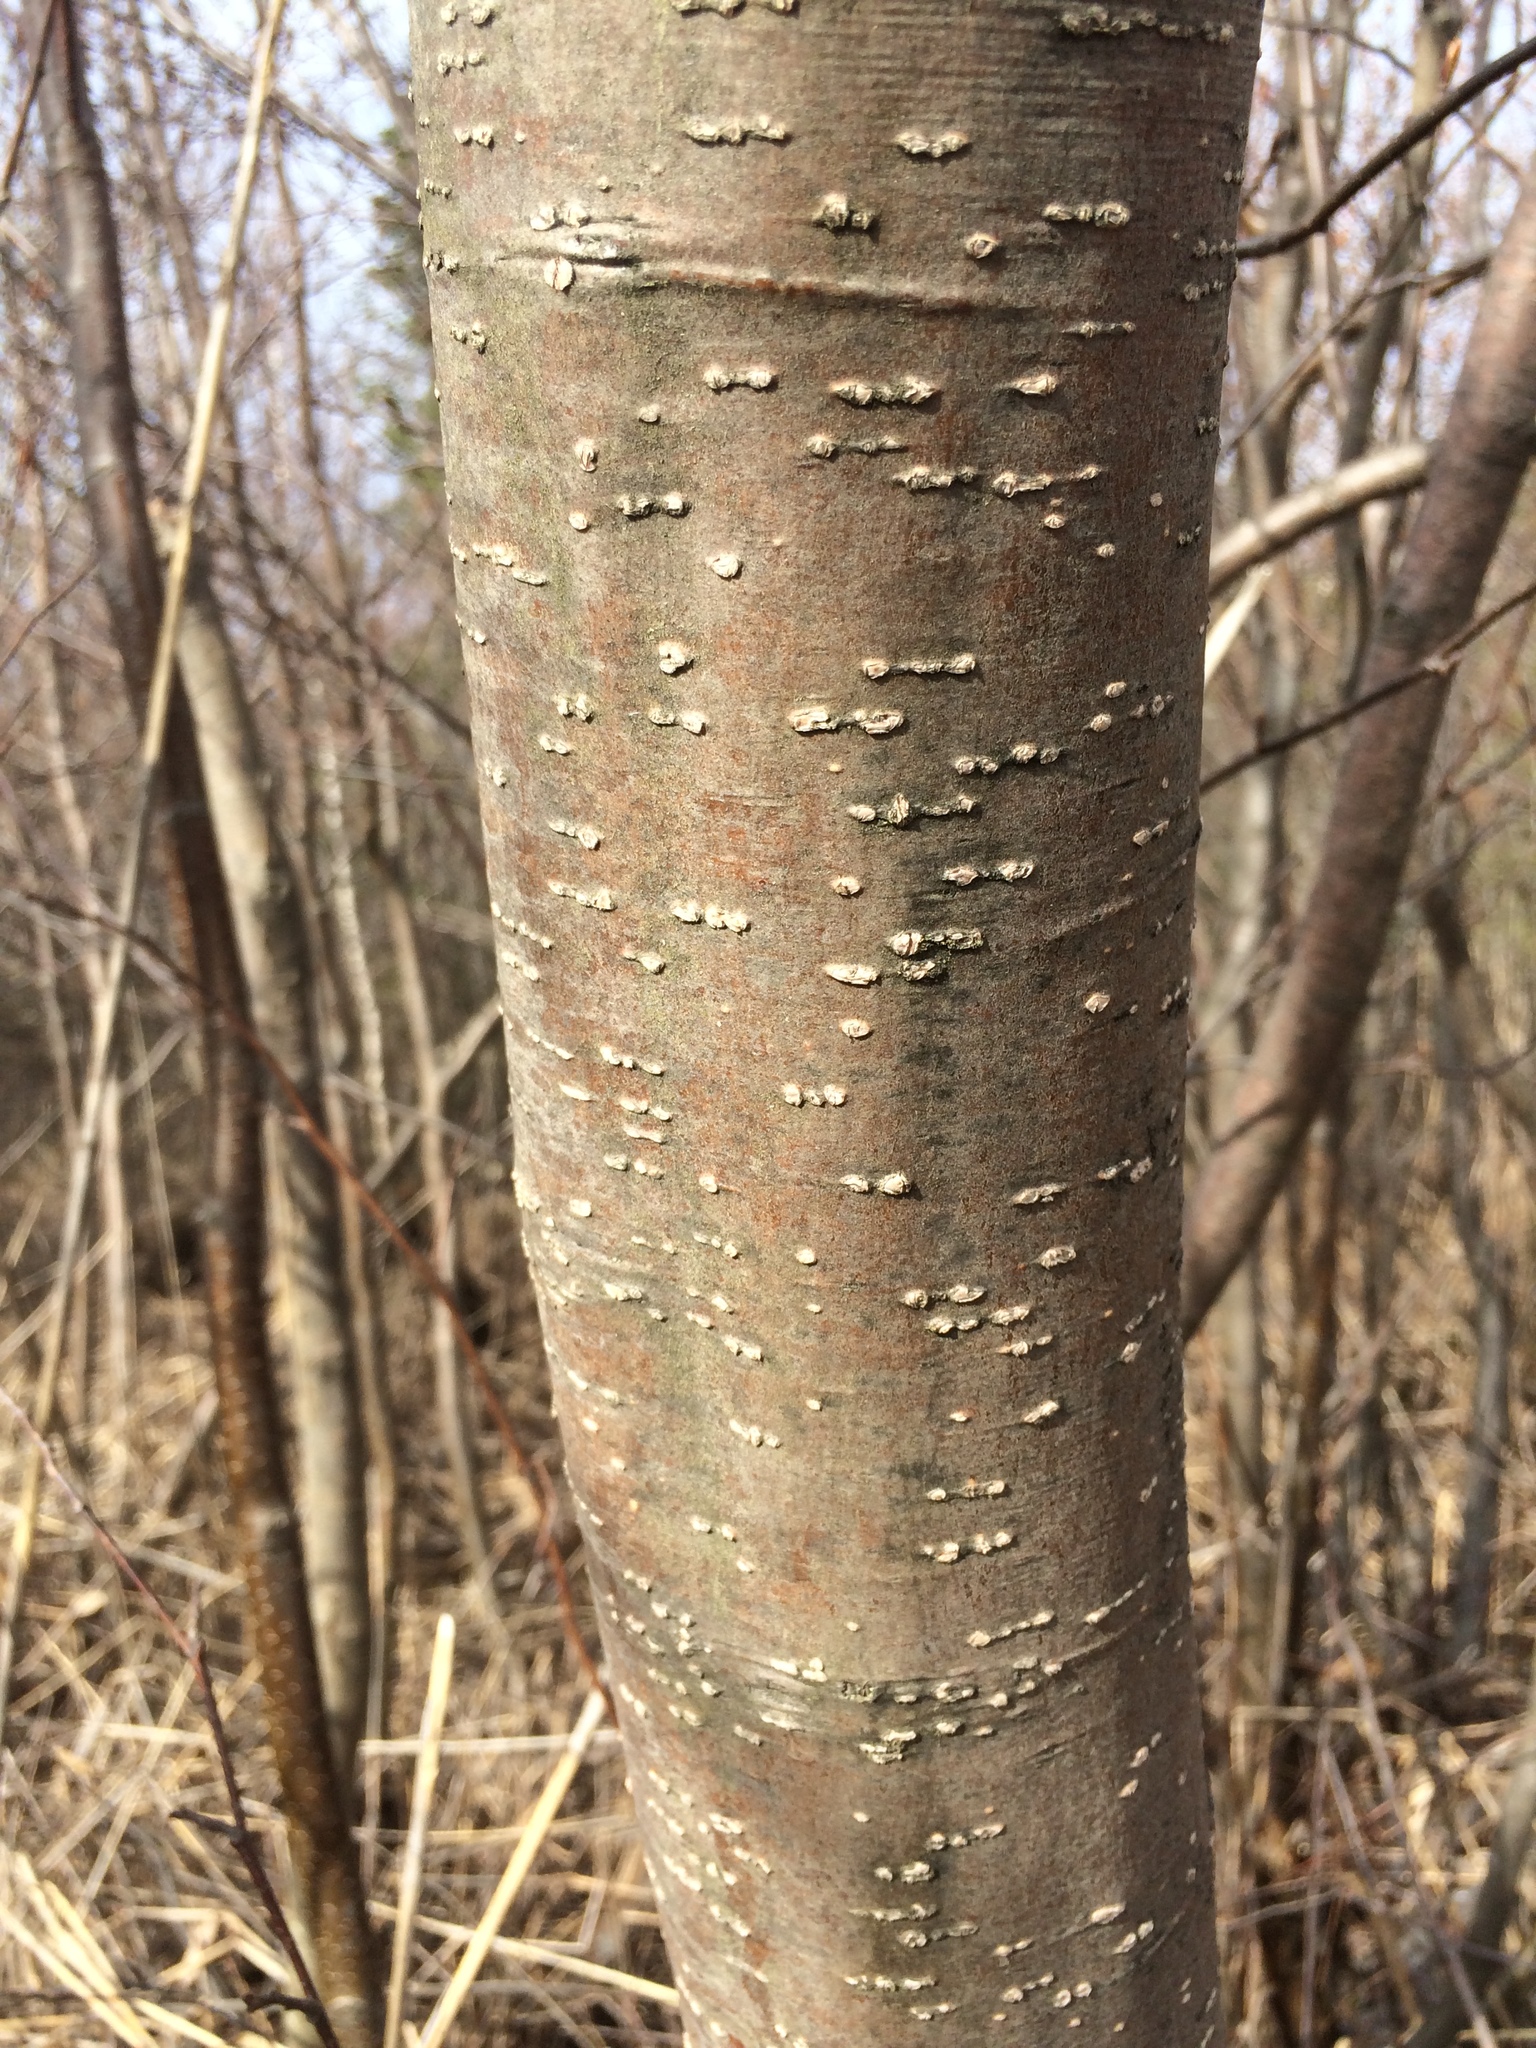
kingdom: Plantae
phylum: Tracheophyta
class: Magnoliopsida
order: Fagales
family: Betulaceae
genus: Alnus
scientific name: Alnus incana
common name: Grey alder
